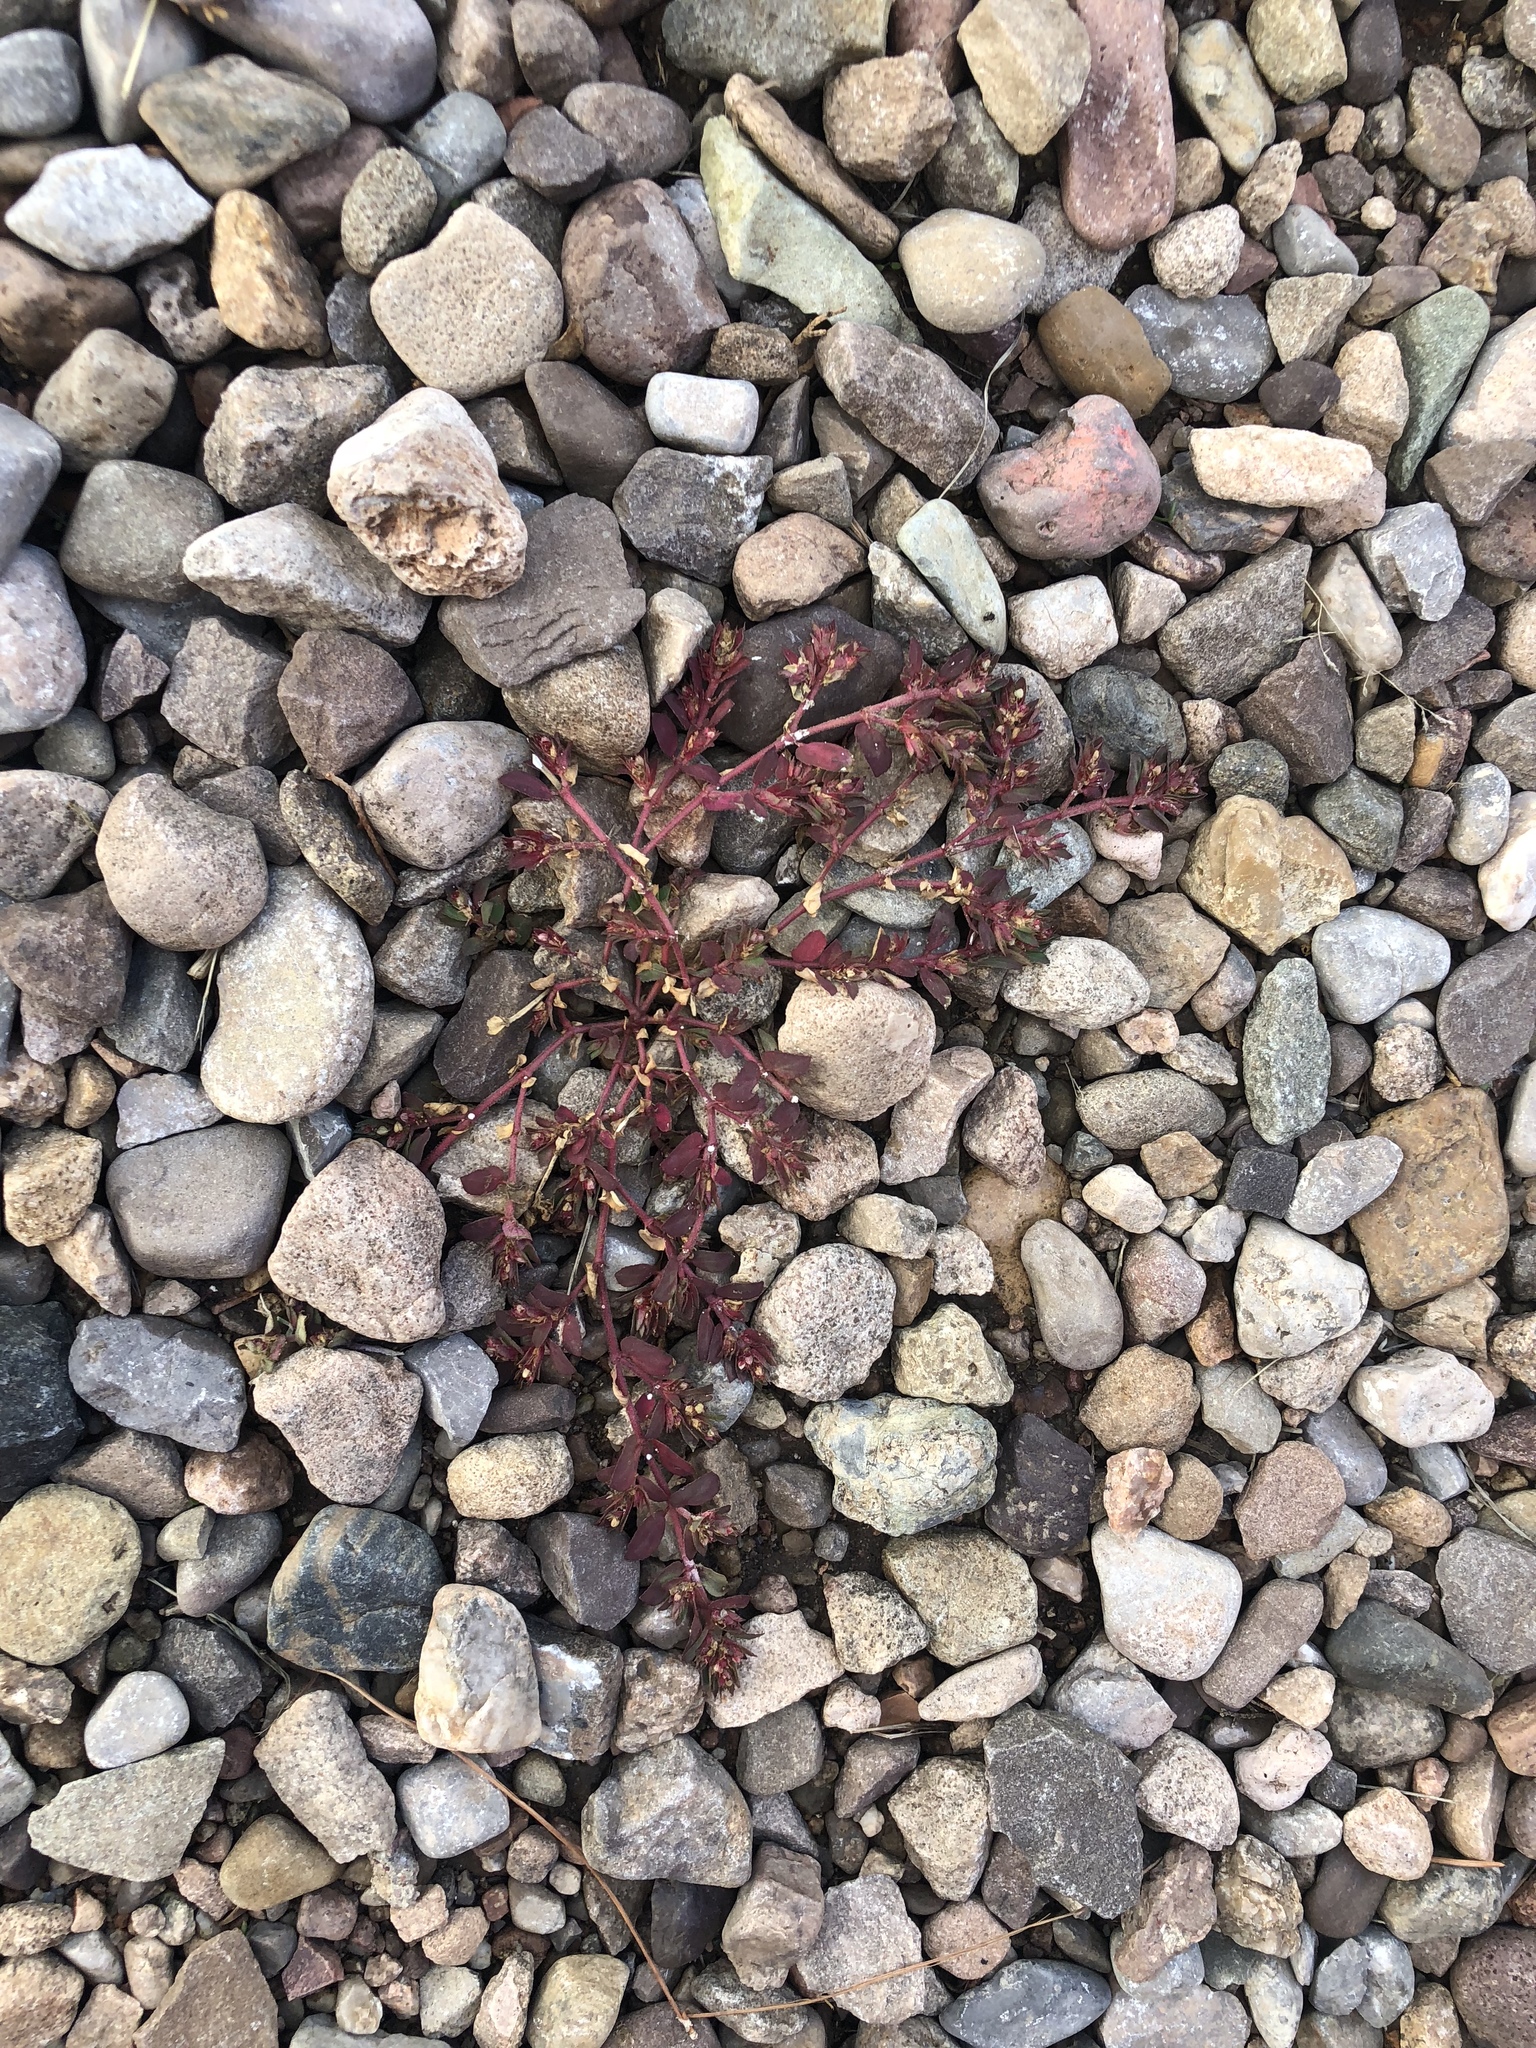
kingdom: Plantae
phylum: Tracheophyta
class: Magnoliopsida
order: Malpighiales
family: Euphorbiaceae
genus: Euphorbia
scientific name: Euphorbia maculata
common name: Spotted spurge
